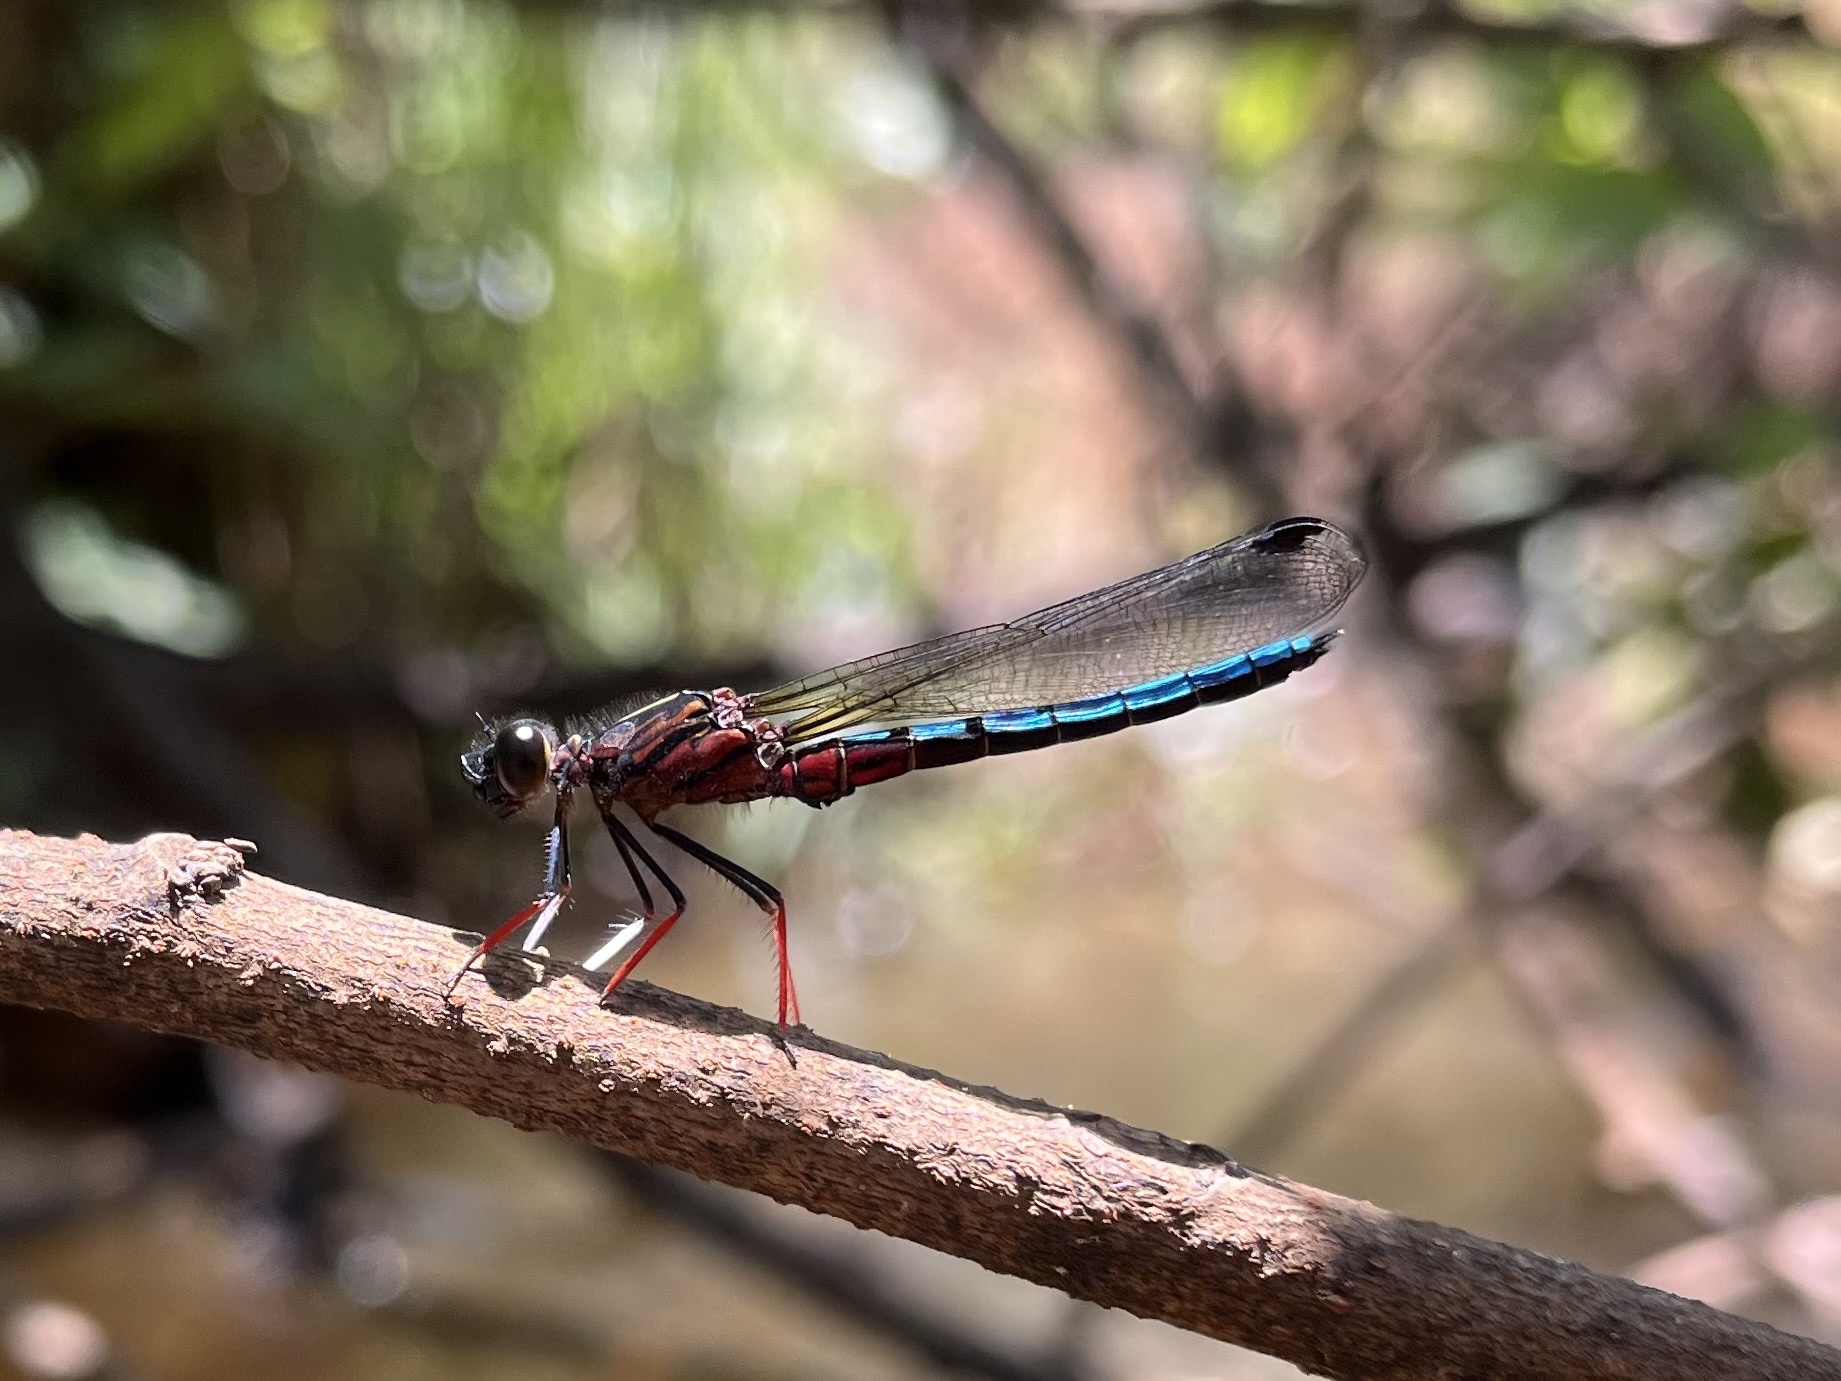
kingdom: Animalia
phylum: Arthropoda
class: Insecta
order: Odonata
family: Chlorocyphidae
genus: Platycypha
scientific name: Platycypha caligata
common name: Dancing jewel
